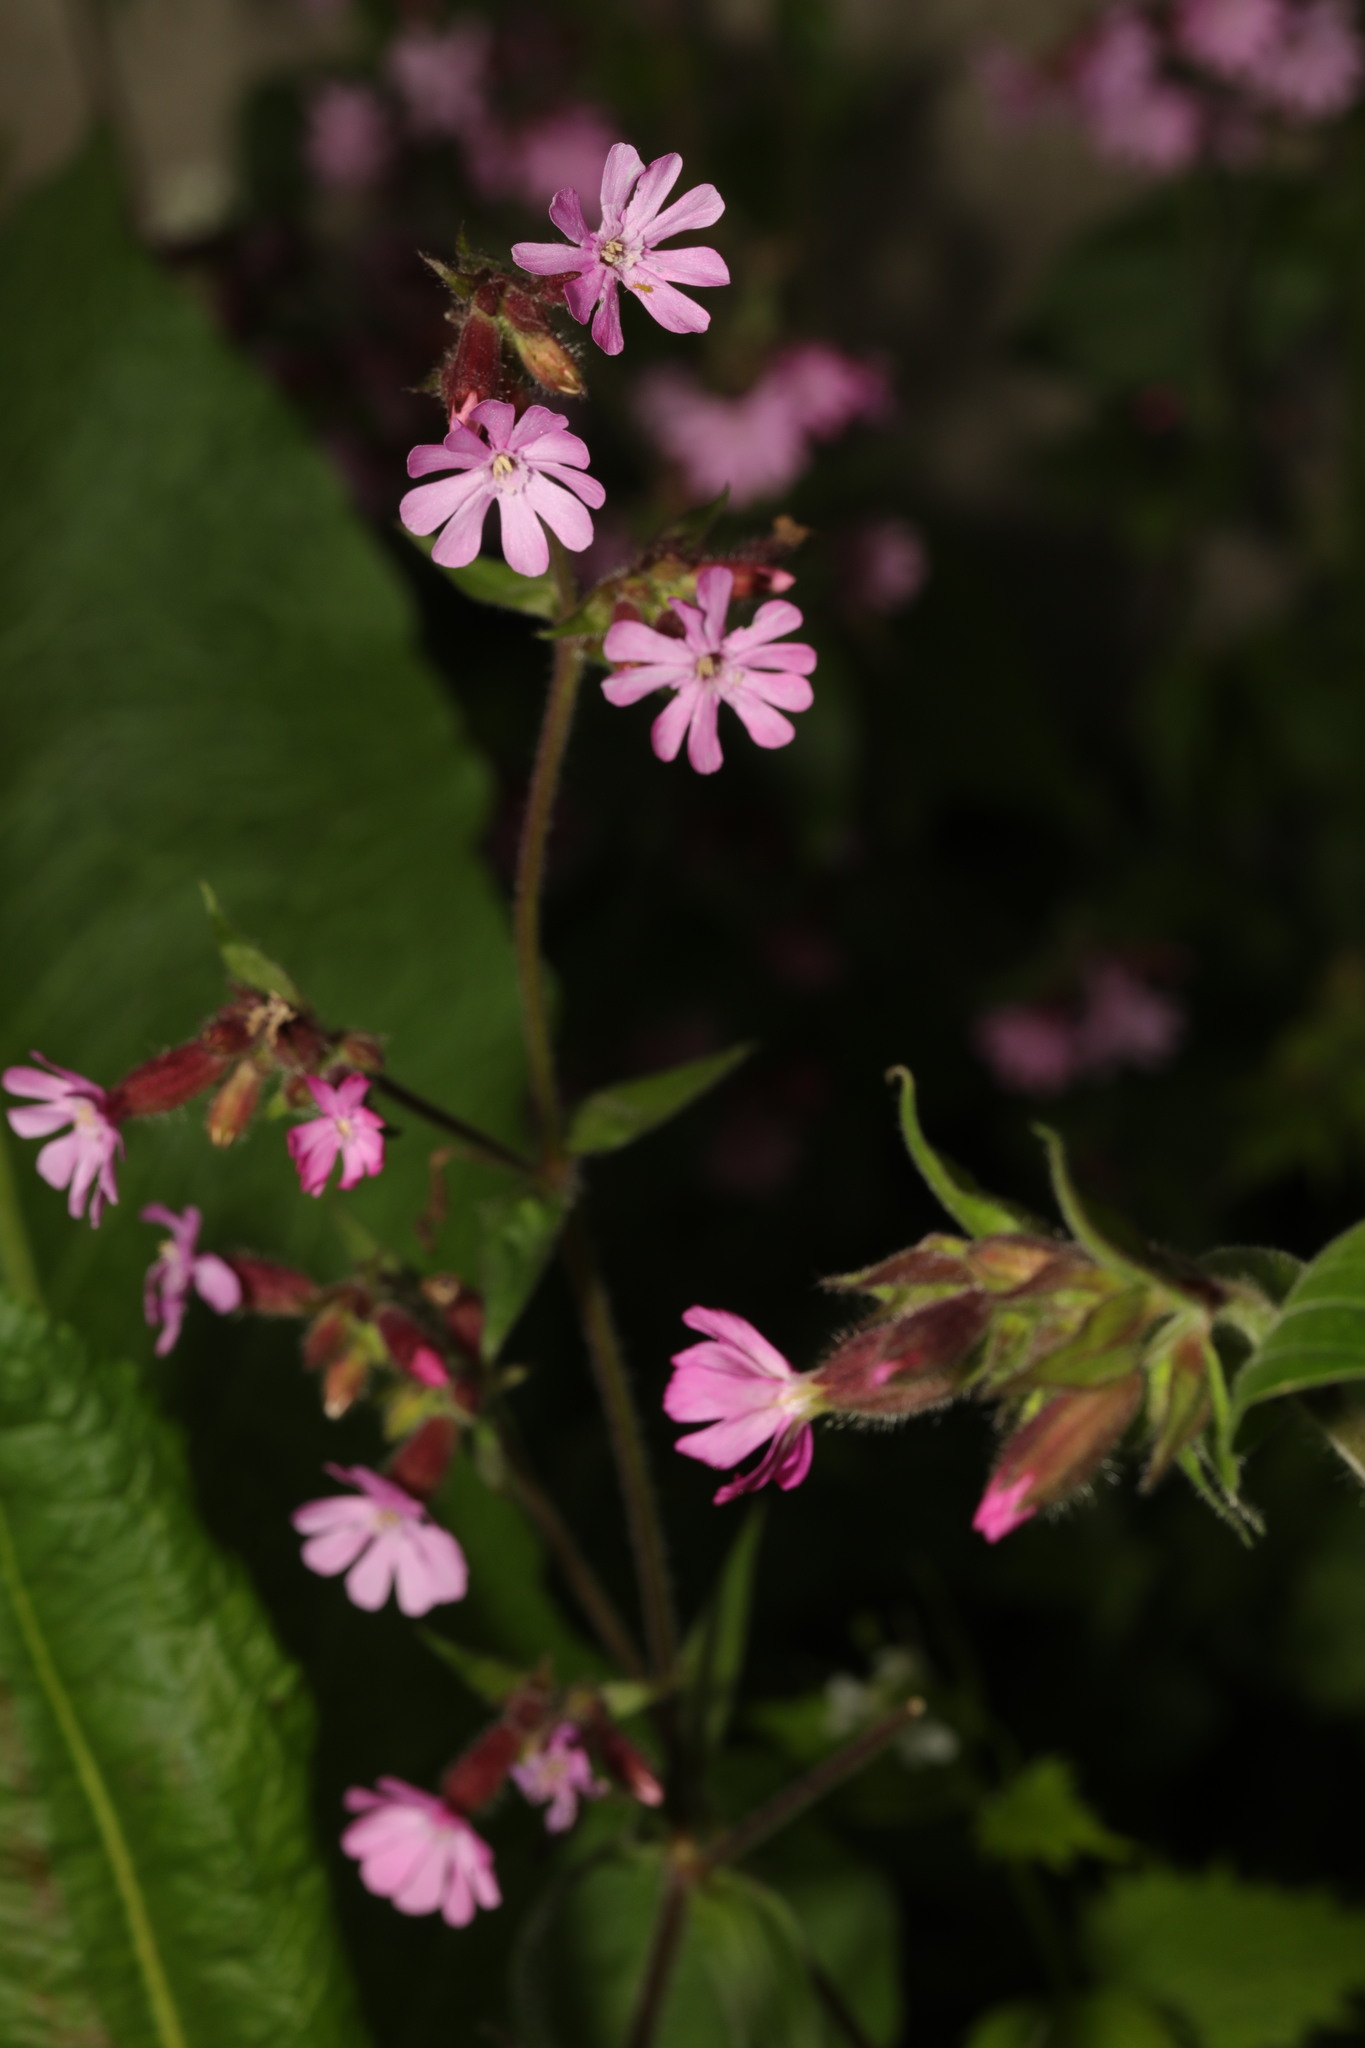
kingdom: Plantae
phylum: Tracheophyta
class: Magnoliopsida
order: Caryophyllales
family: Caryophyllaceae
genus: Silene
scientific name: Silene dioica
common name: Red campion
